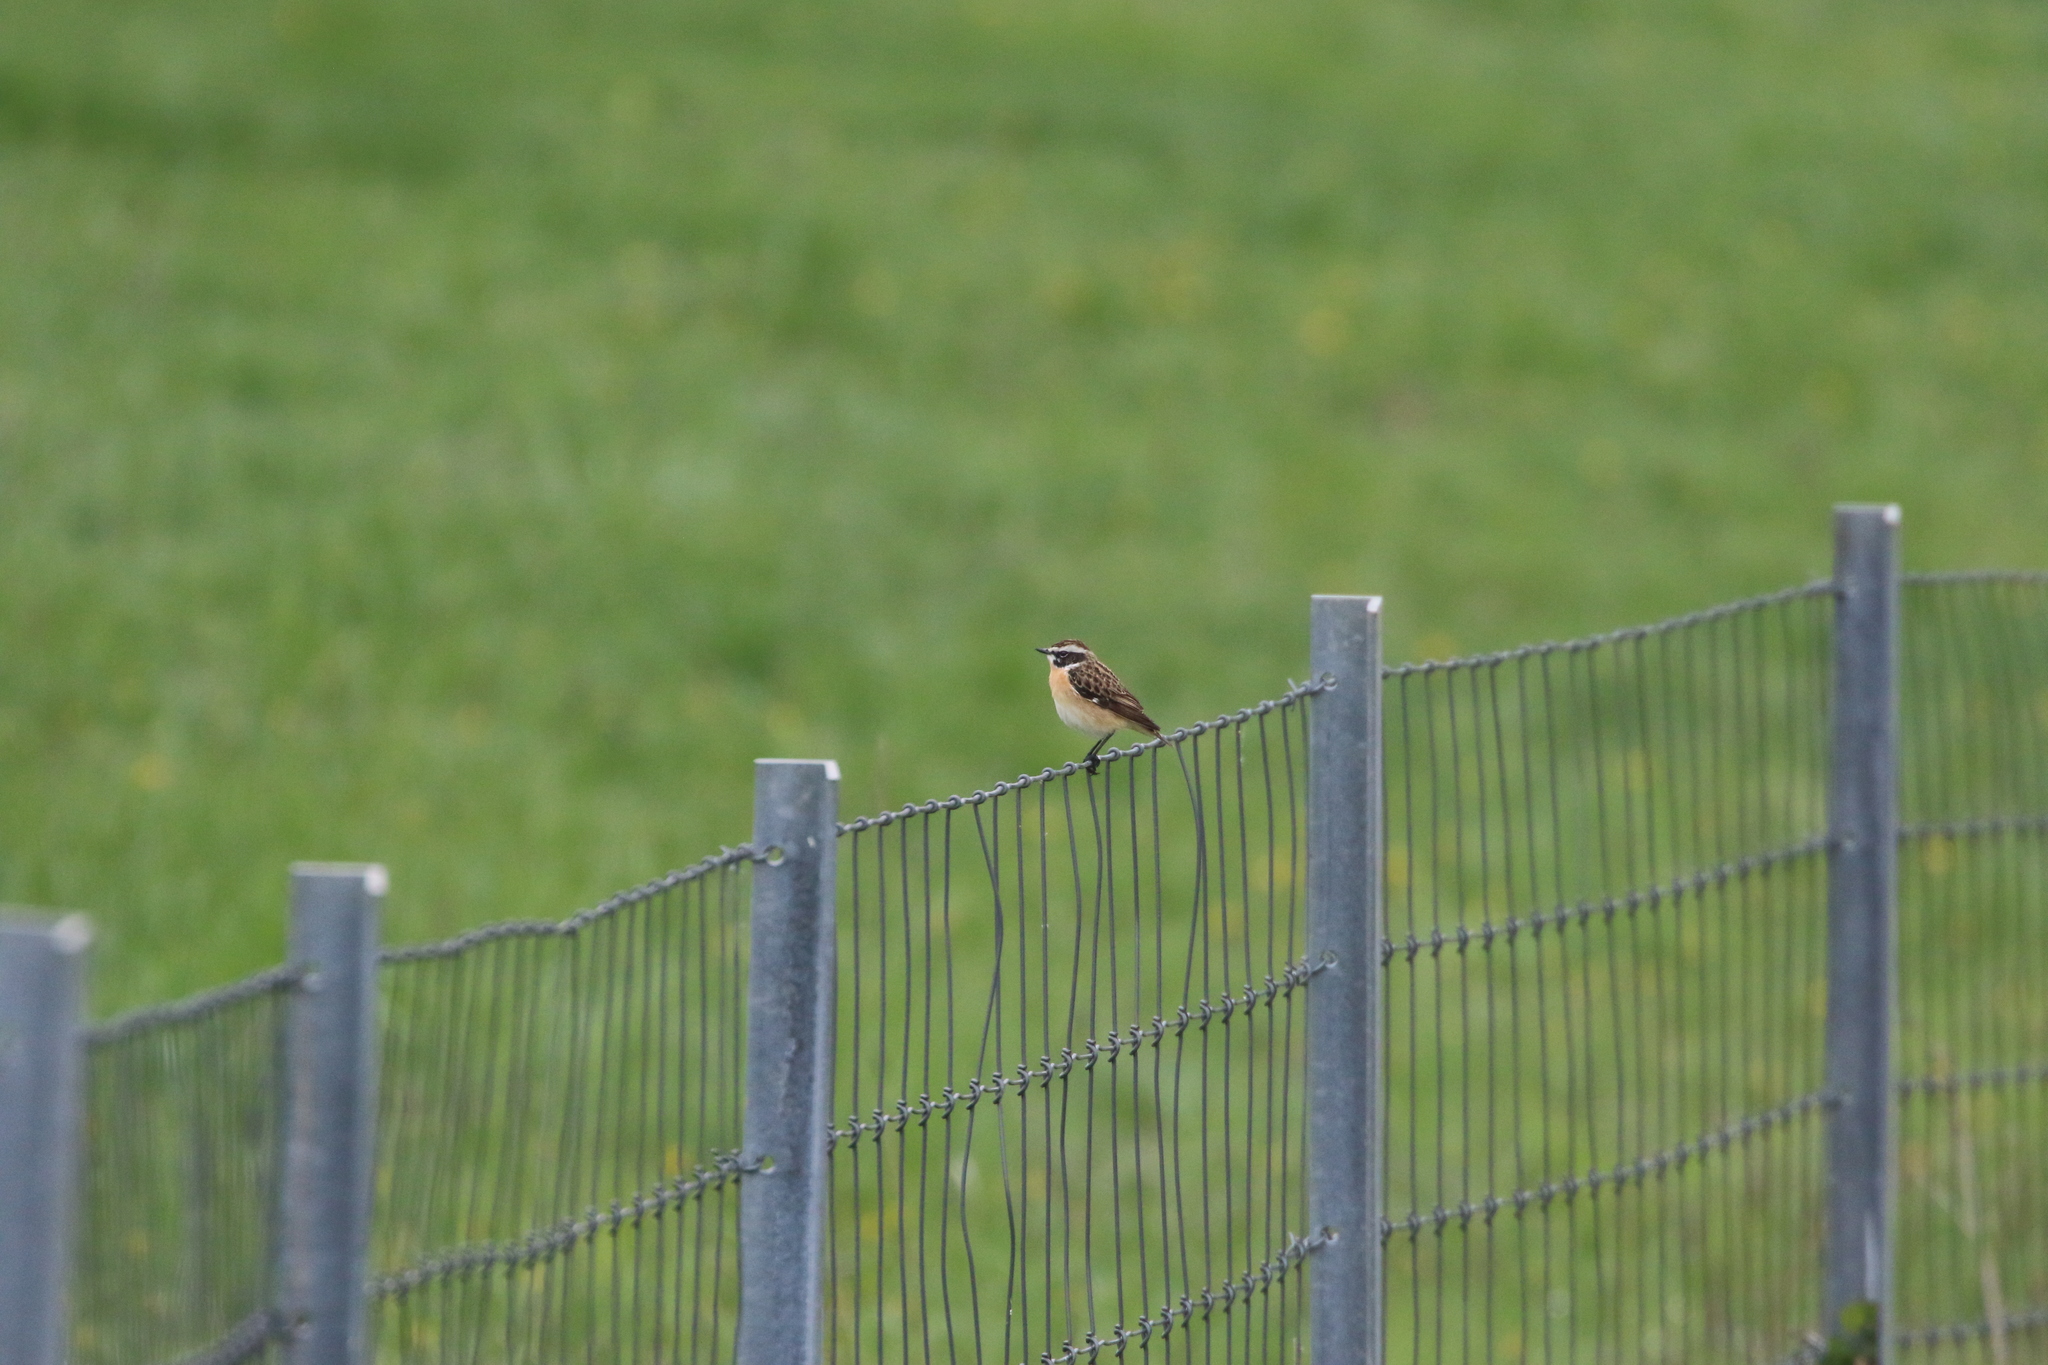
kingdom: Animalia
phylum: Chordata
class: Aves
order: Passeriformes
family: Muscicapidae
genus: Saxicola
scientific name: Saxicola rubetra
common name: Whinchat
